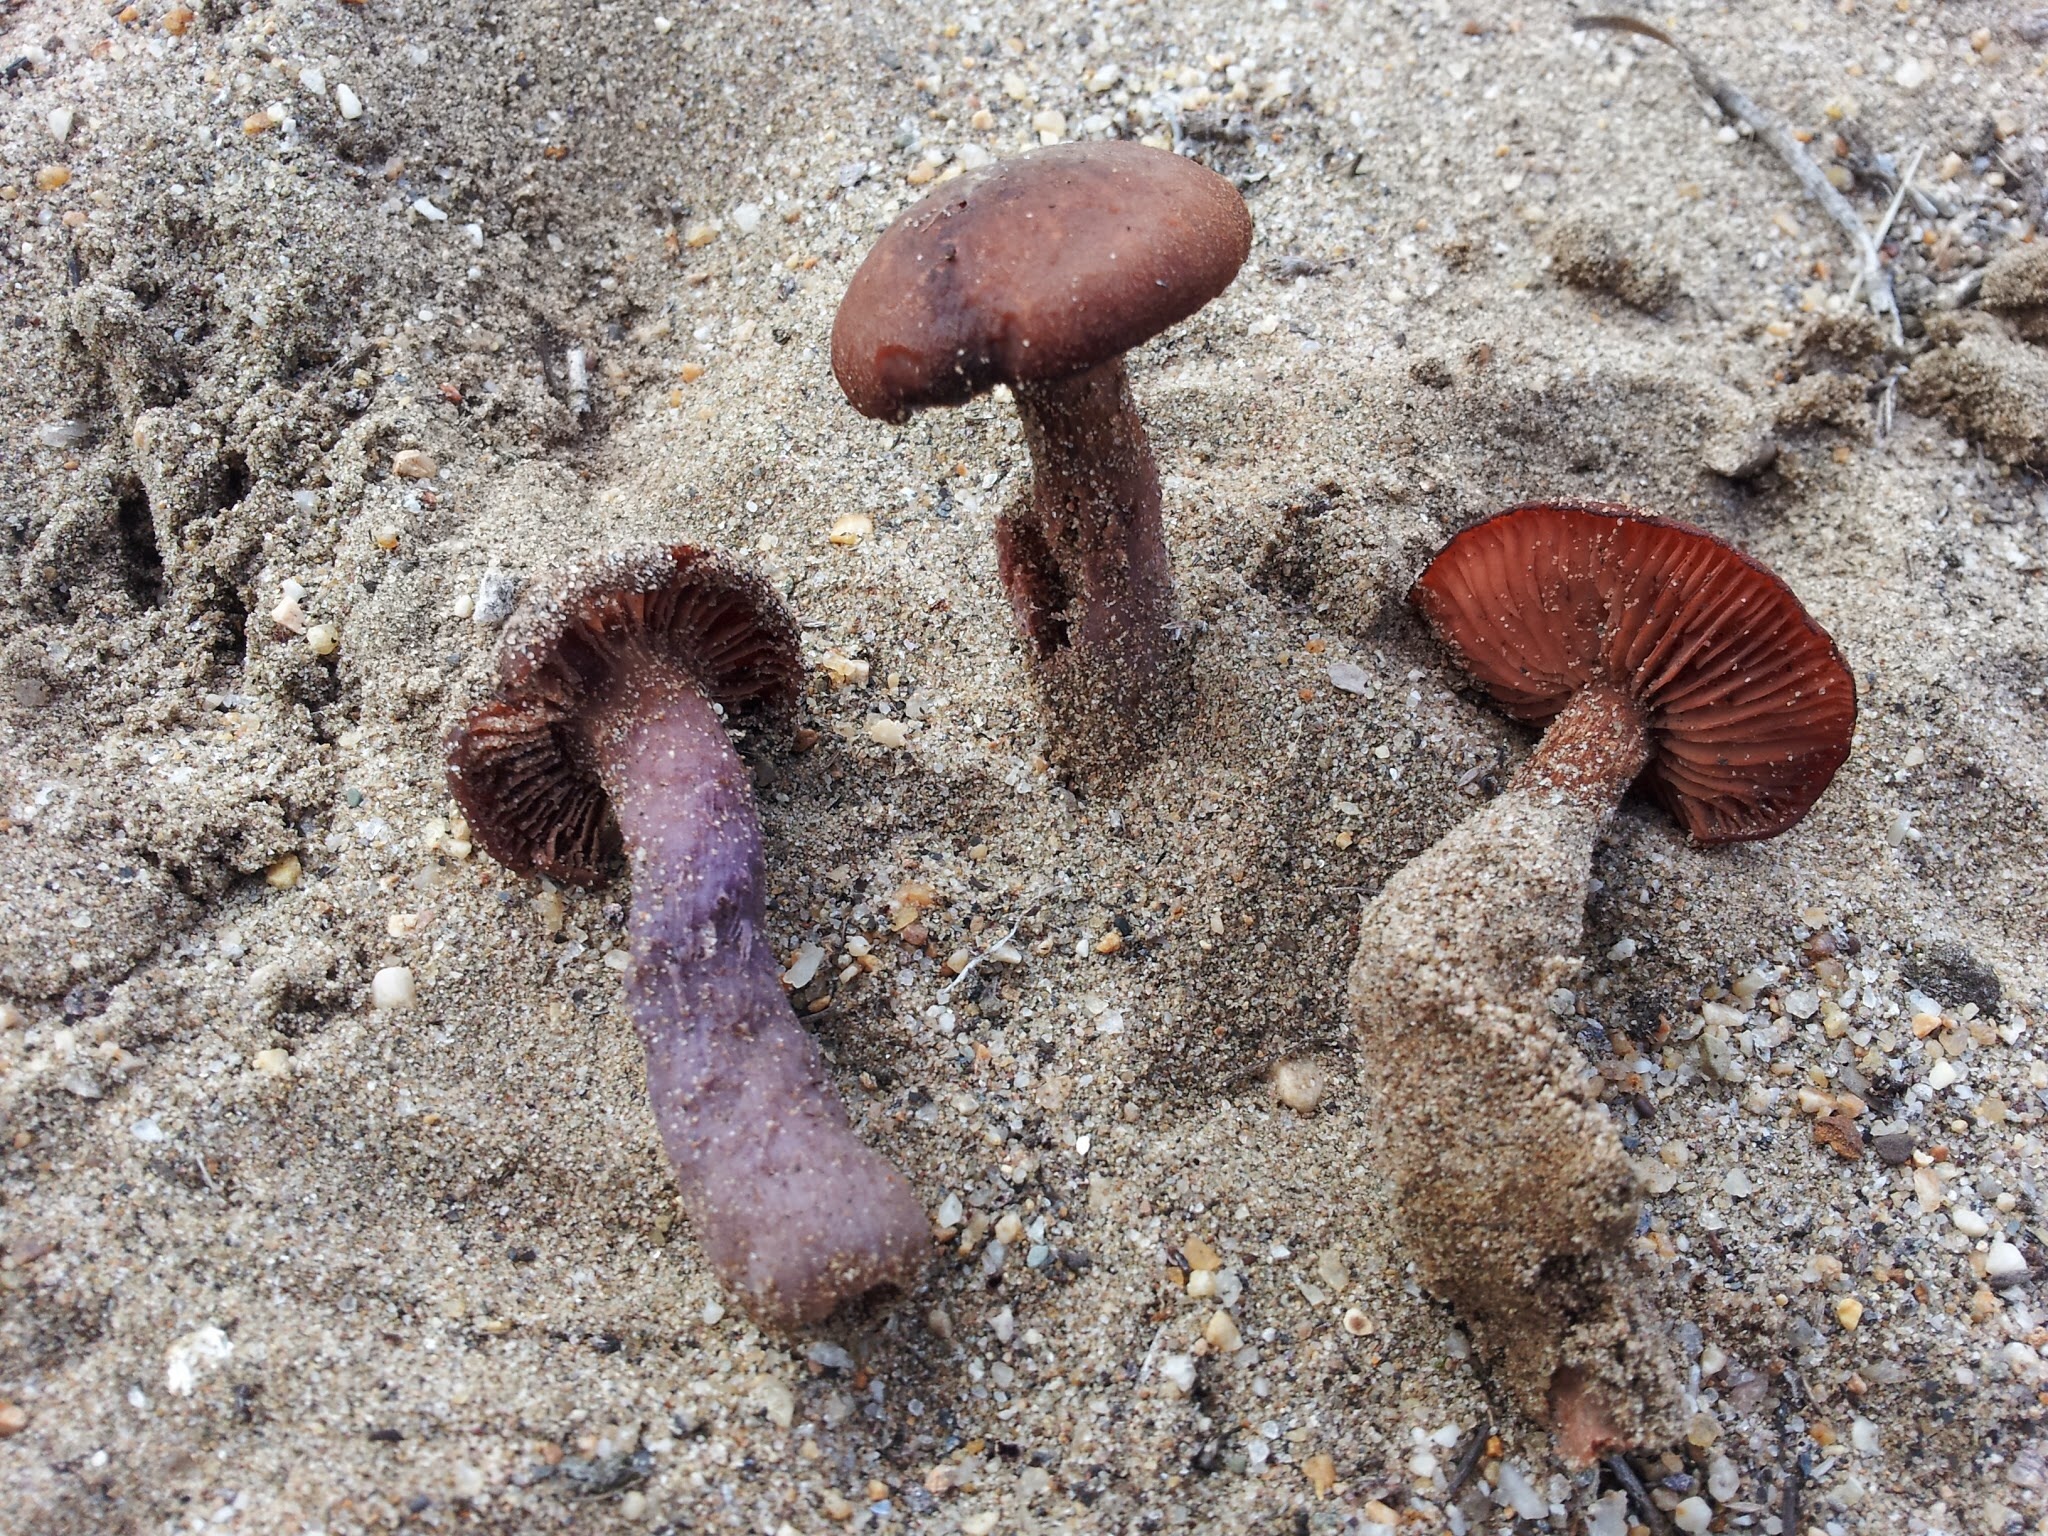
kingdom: Fungi
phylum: Basidiomycota
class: Agaricomycetes
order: Agaricales
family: Hydnangiaceae
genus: Laccaria
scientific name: Laccaria trullissata
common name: Sandy laccaria
